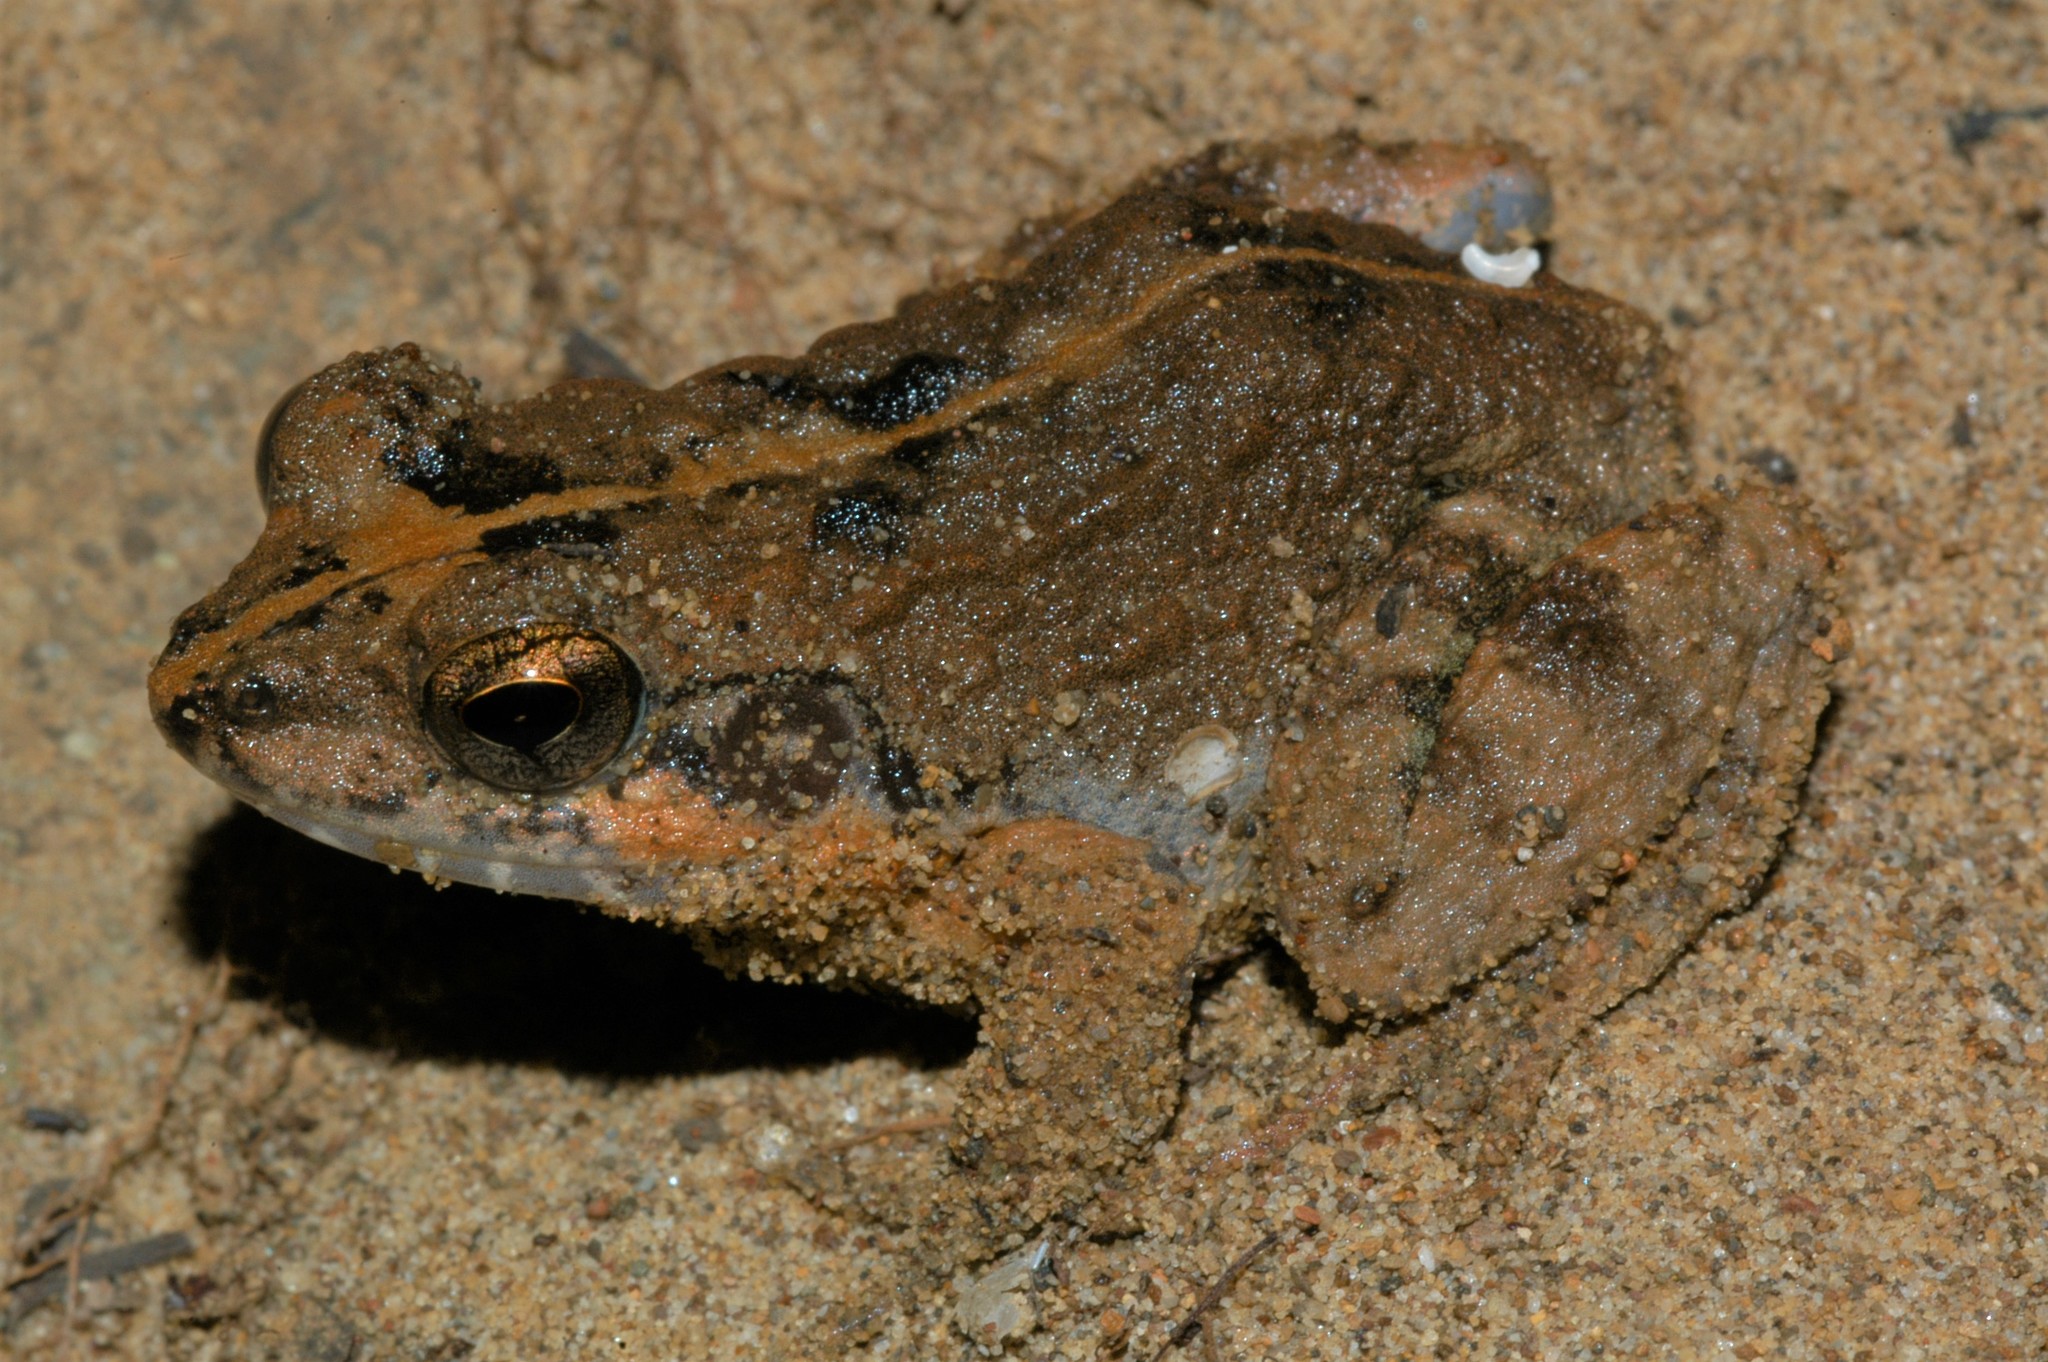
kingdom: Animalia
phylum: Chordata
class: Amphibia
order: Anura
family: Mantellidae
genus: Mantidactylus
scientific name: Mantidactylus bellyi
